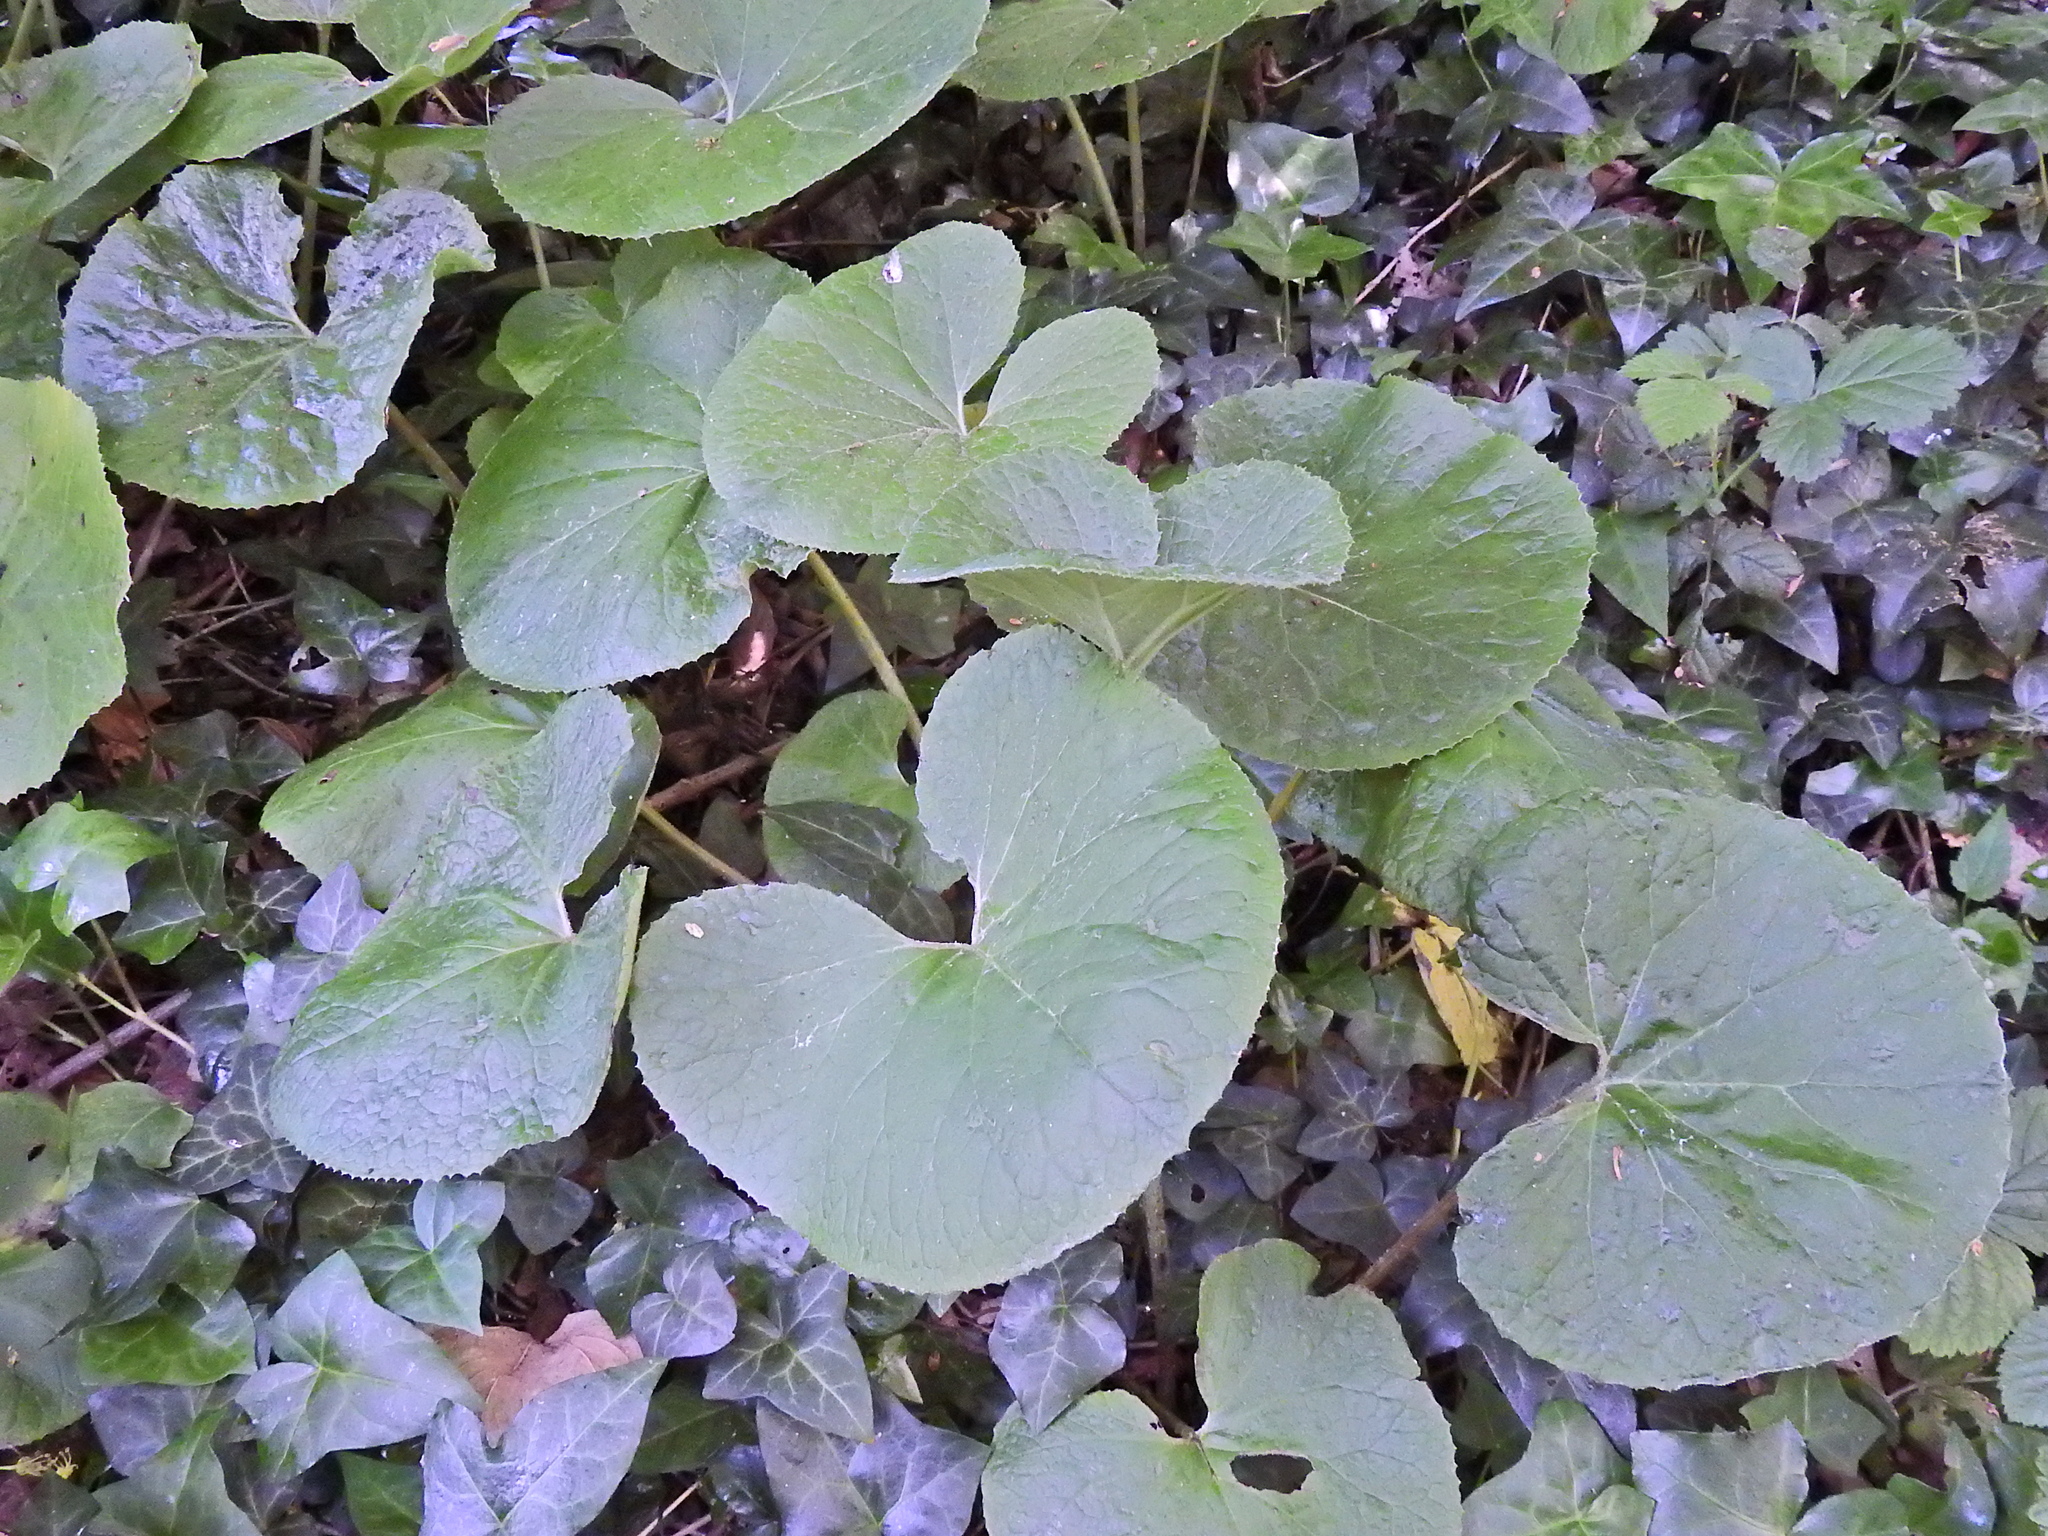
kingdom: Plantae
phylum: Tracheophyta
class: Magnoliopsida
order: Asterales
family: Asteraceae
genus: Petasites
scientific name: Petasites pyrenaicus
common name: Winter heliotrope
